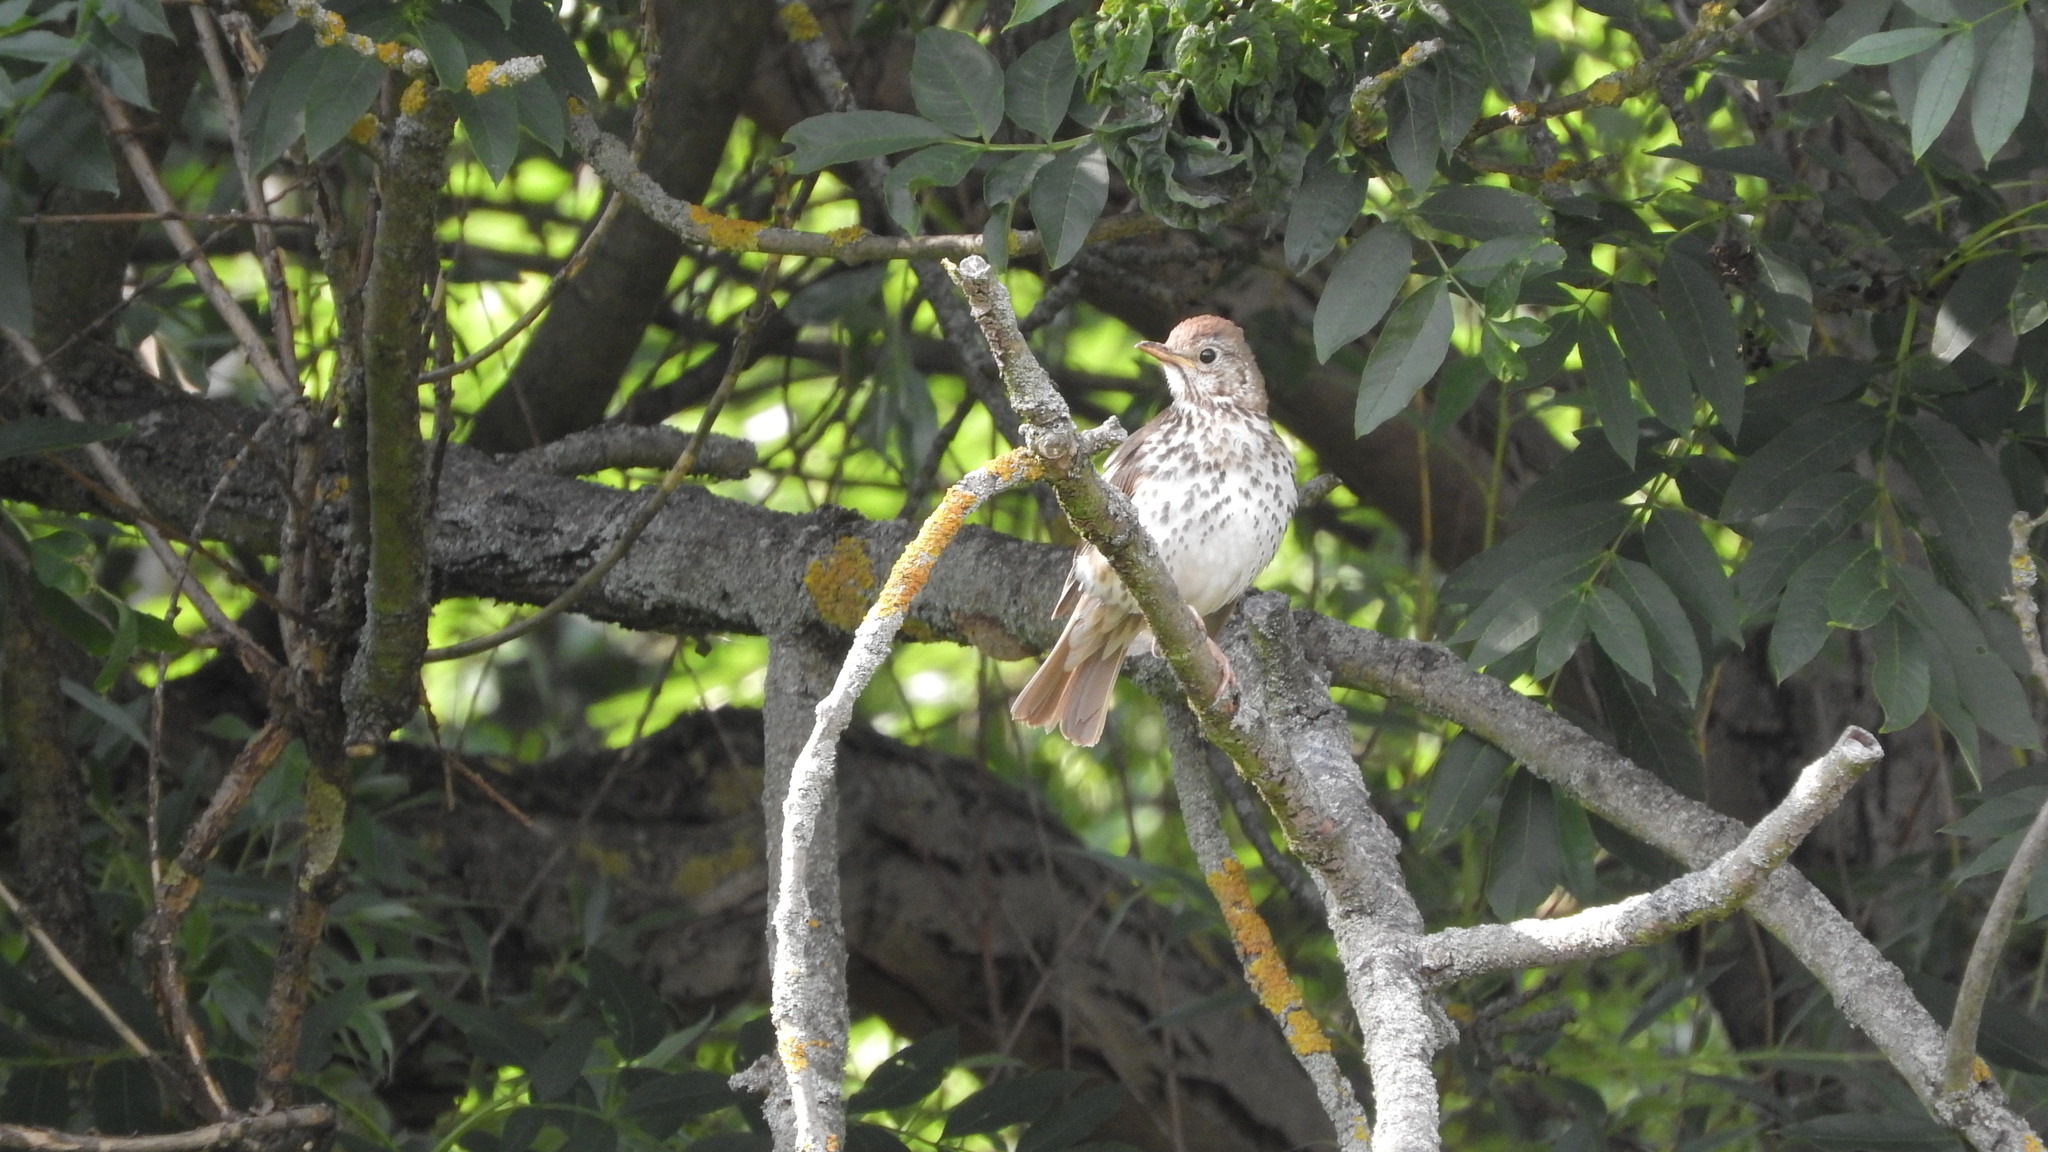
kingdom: Animalia
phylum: Chordata
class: Aves
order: Passeriformes
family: Turdidae
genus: Turdus
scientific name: Turdus philomelos
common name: Song thrush
